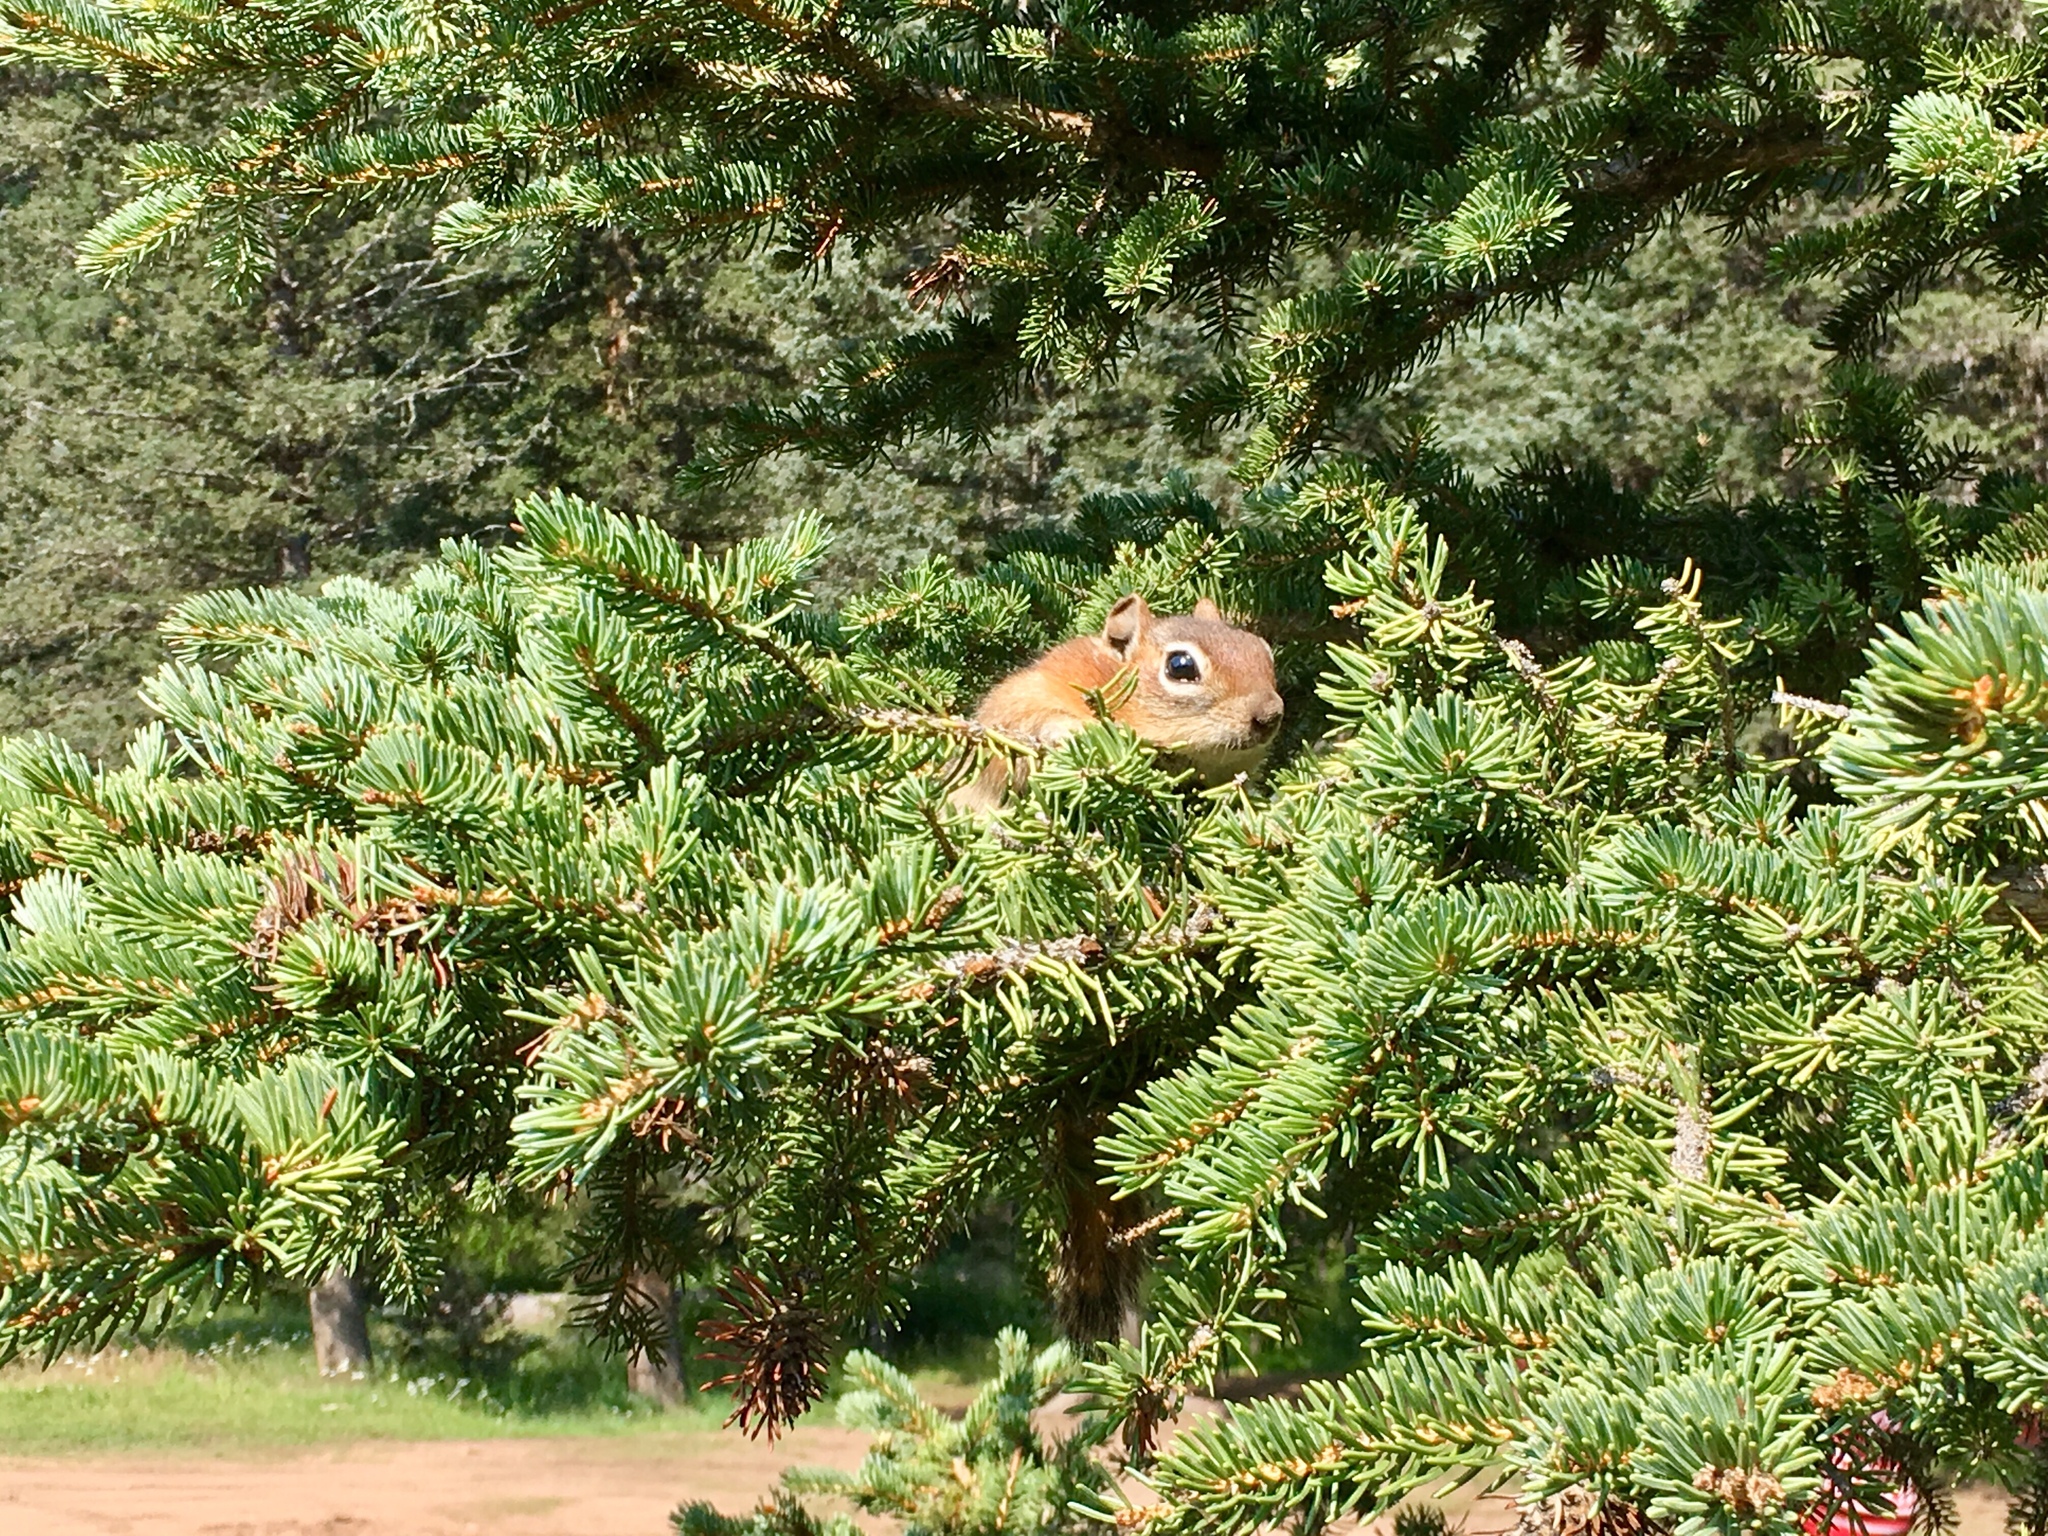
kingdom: Animalia
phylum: Chordata
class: Mammalia
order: Rodentia
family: Sciuridae
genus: Callospermophilus
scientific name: Callospermophilus lateralis
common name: Golden-mantled ground squirrel
